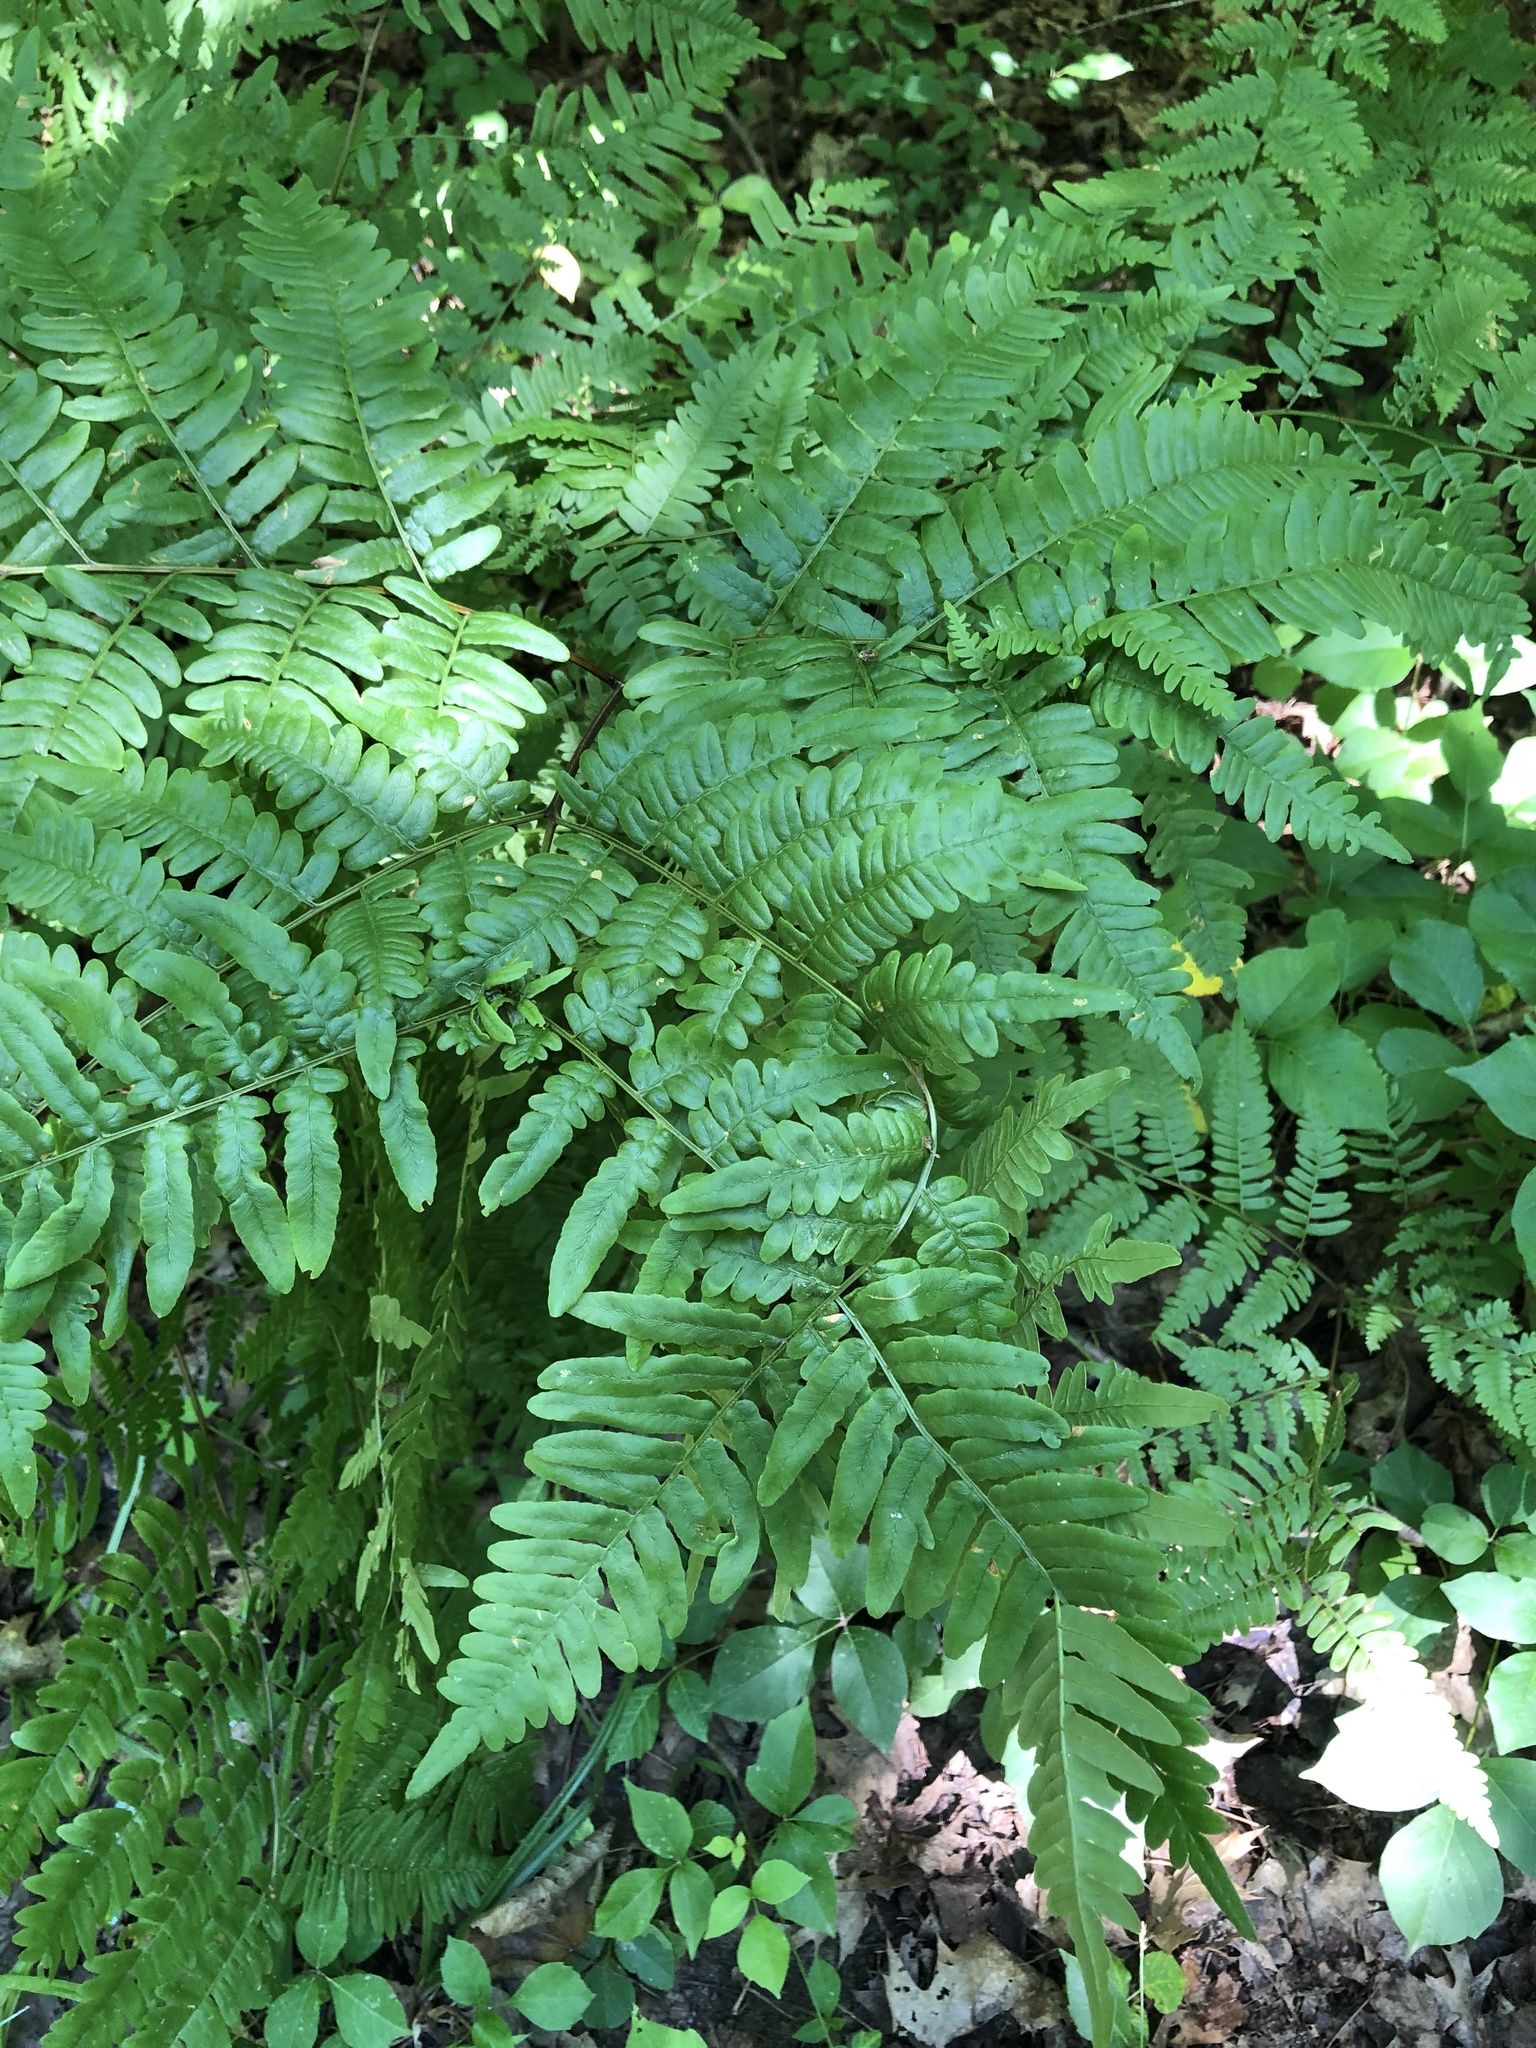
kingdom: Plantae
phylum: Tracheophyta
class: Polypodiopsida
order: Polypodiales
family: Dennstaedtiaceae
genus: Pteridium
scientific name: Pteridium aquilinum
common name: Bracken
